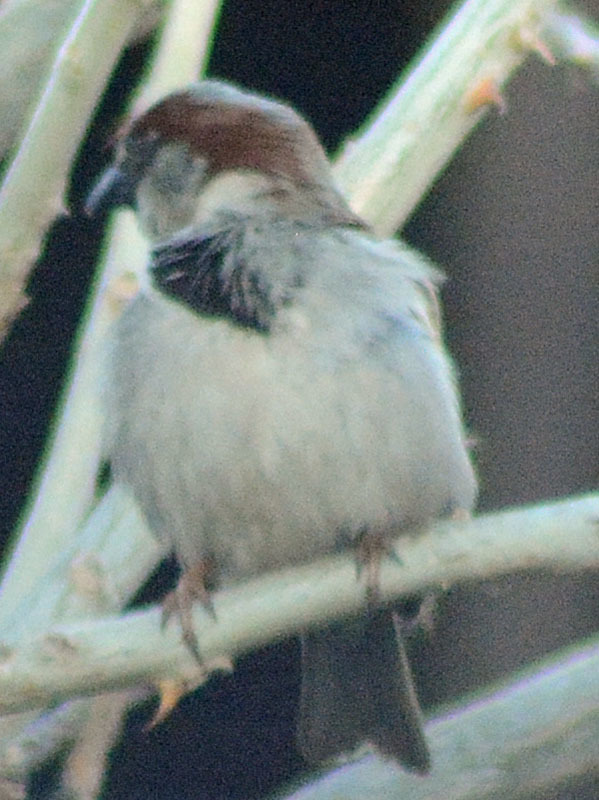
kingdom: Animalia
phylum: Chordata
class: Aves
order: Passeriformes
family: Passeridae
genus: Passer
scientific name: Passer domesticus
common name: House sparrow
